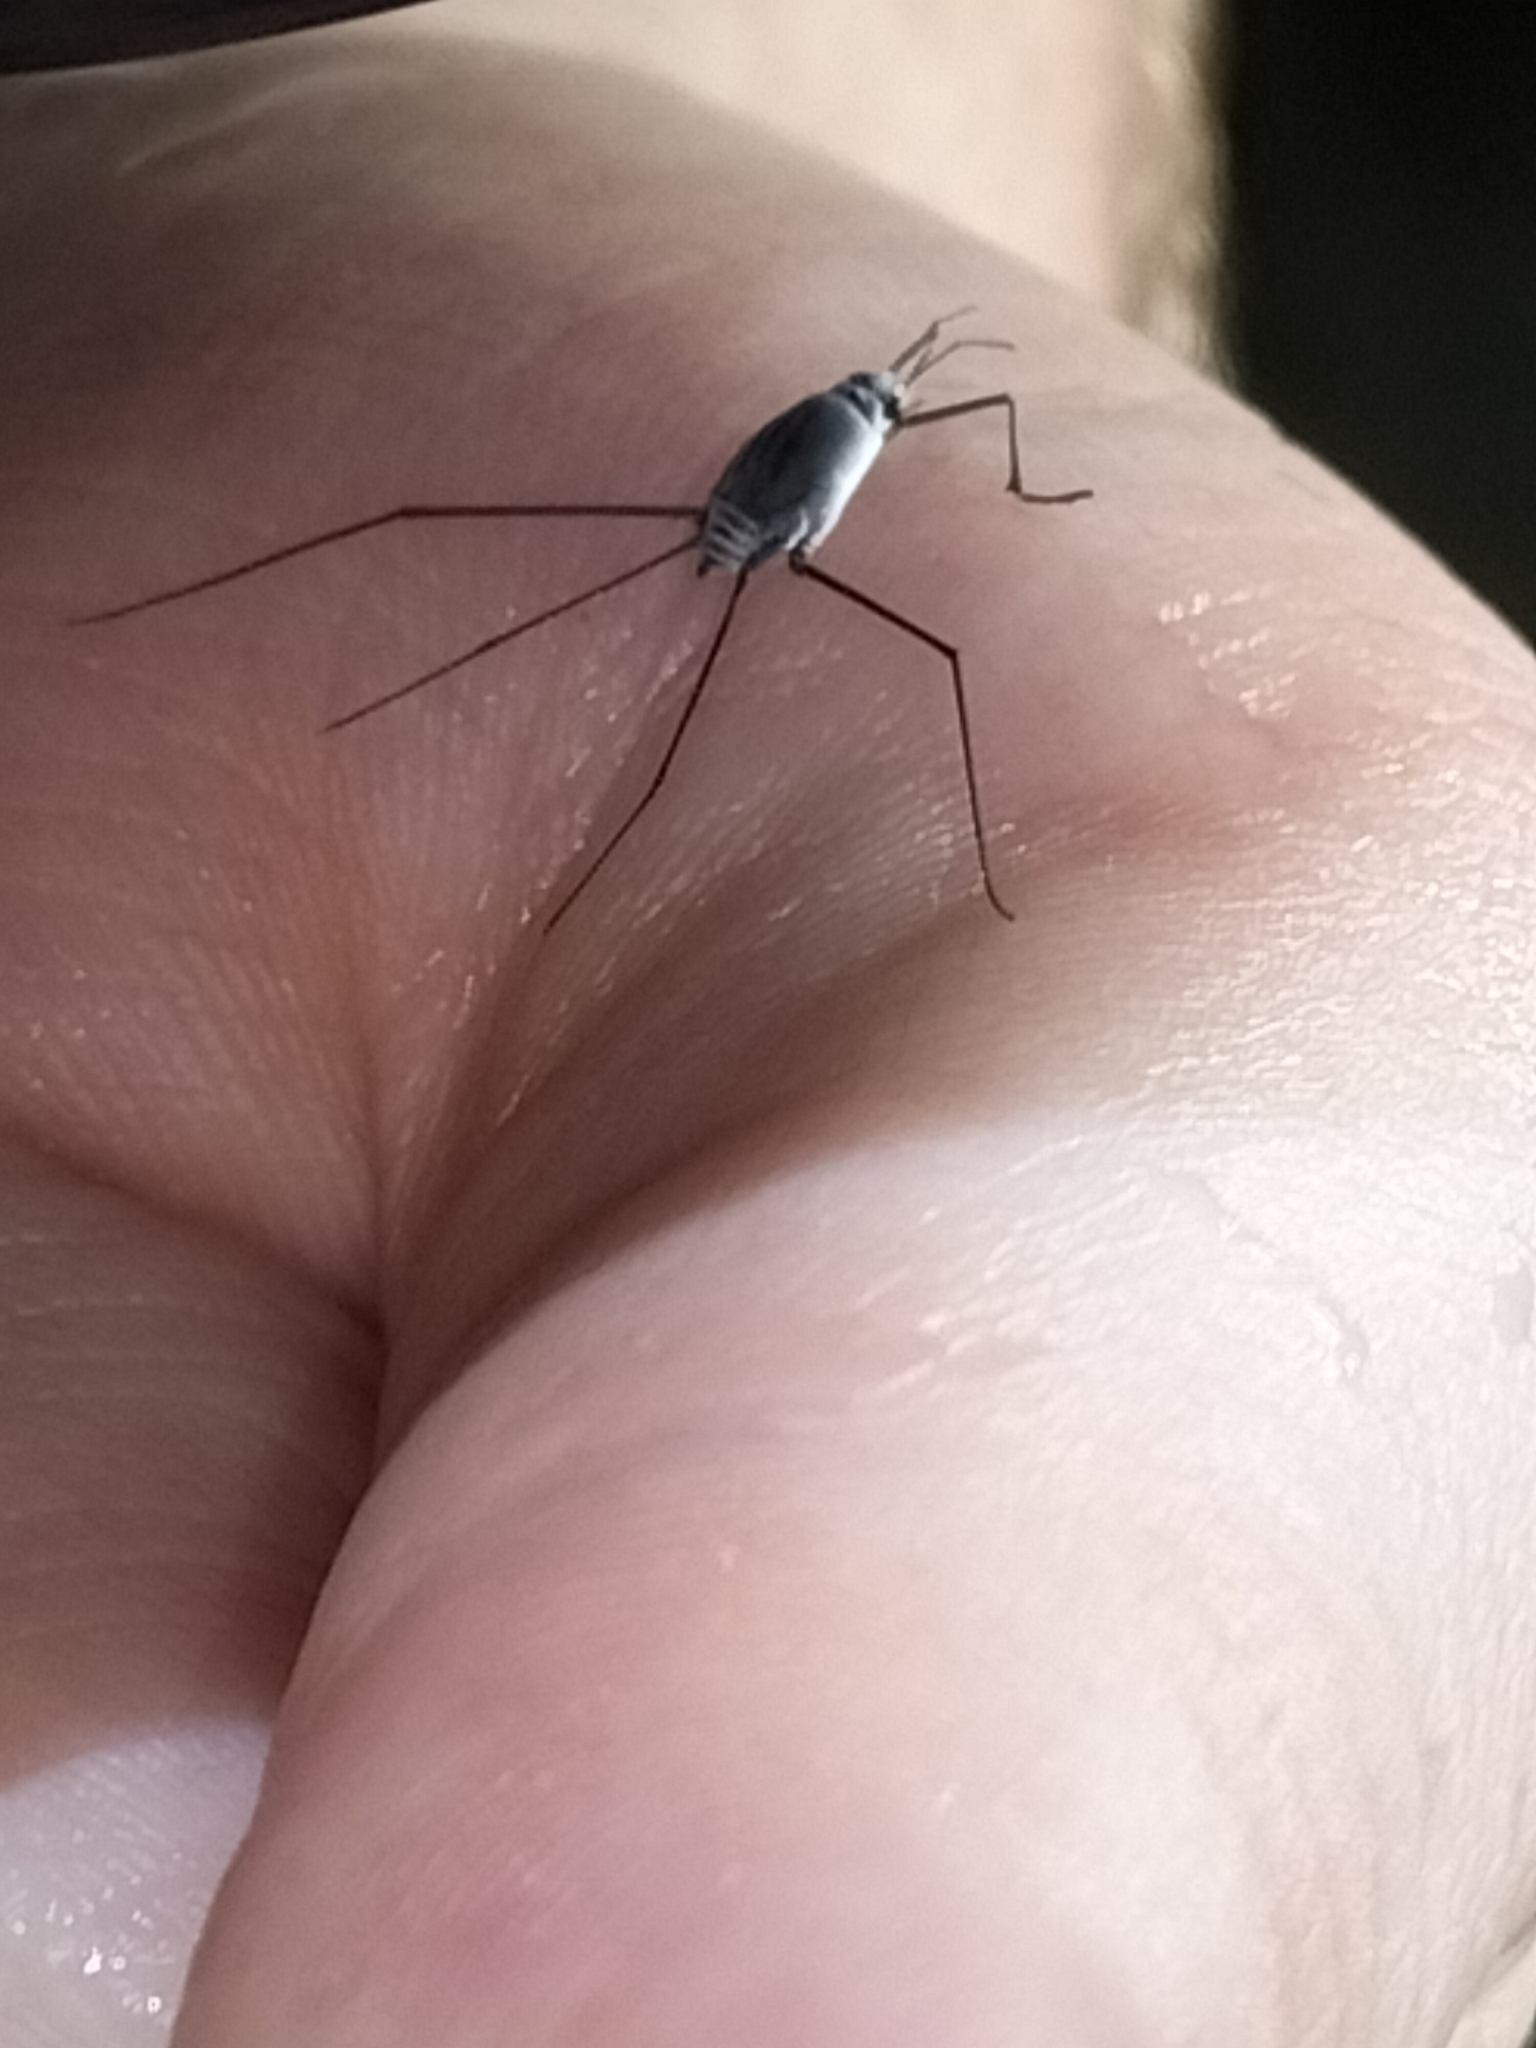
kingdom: Animalia
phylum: Arthropoda
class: Insecta
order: Hemiptera
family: Gerridae
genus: Halobates
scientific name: Halobates
